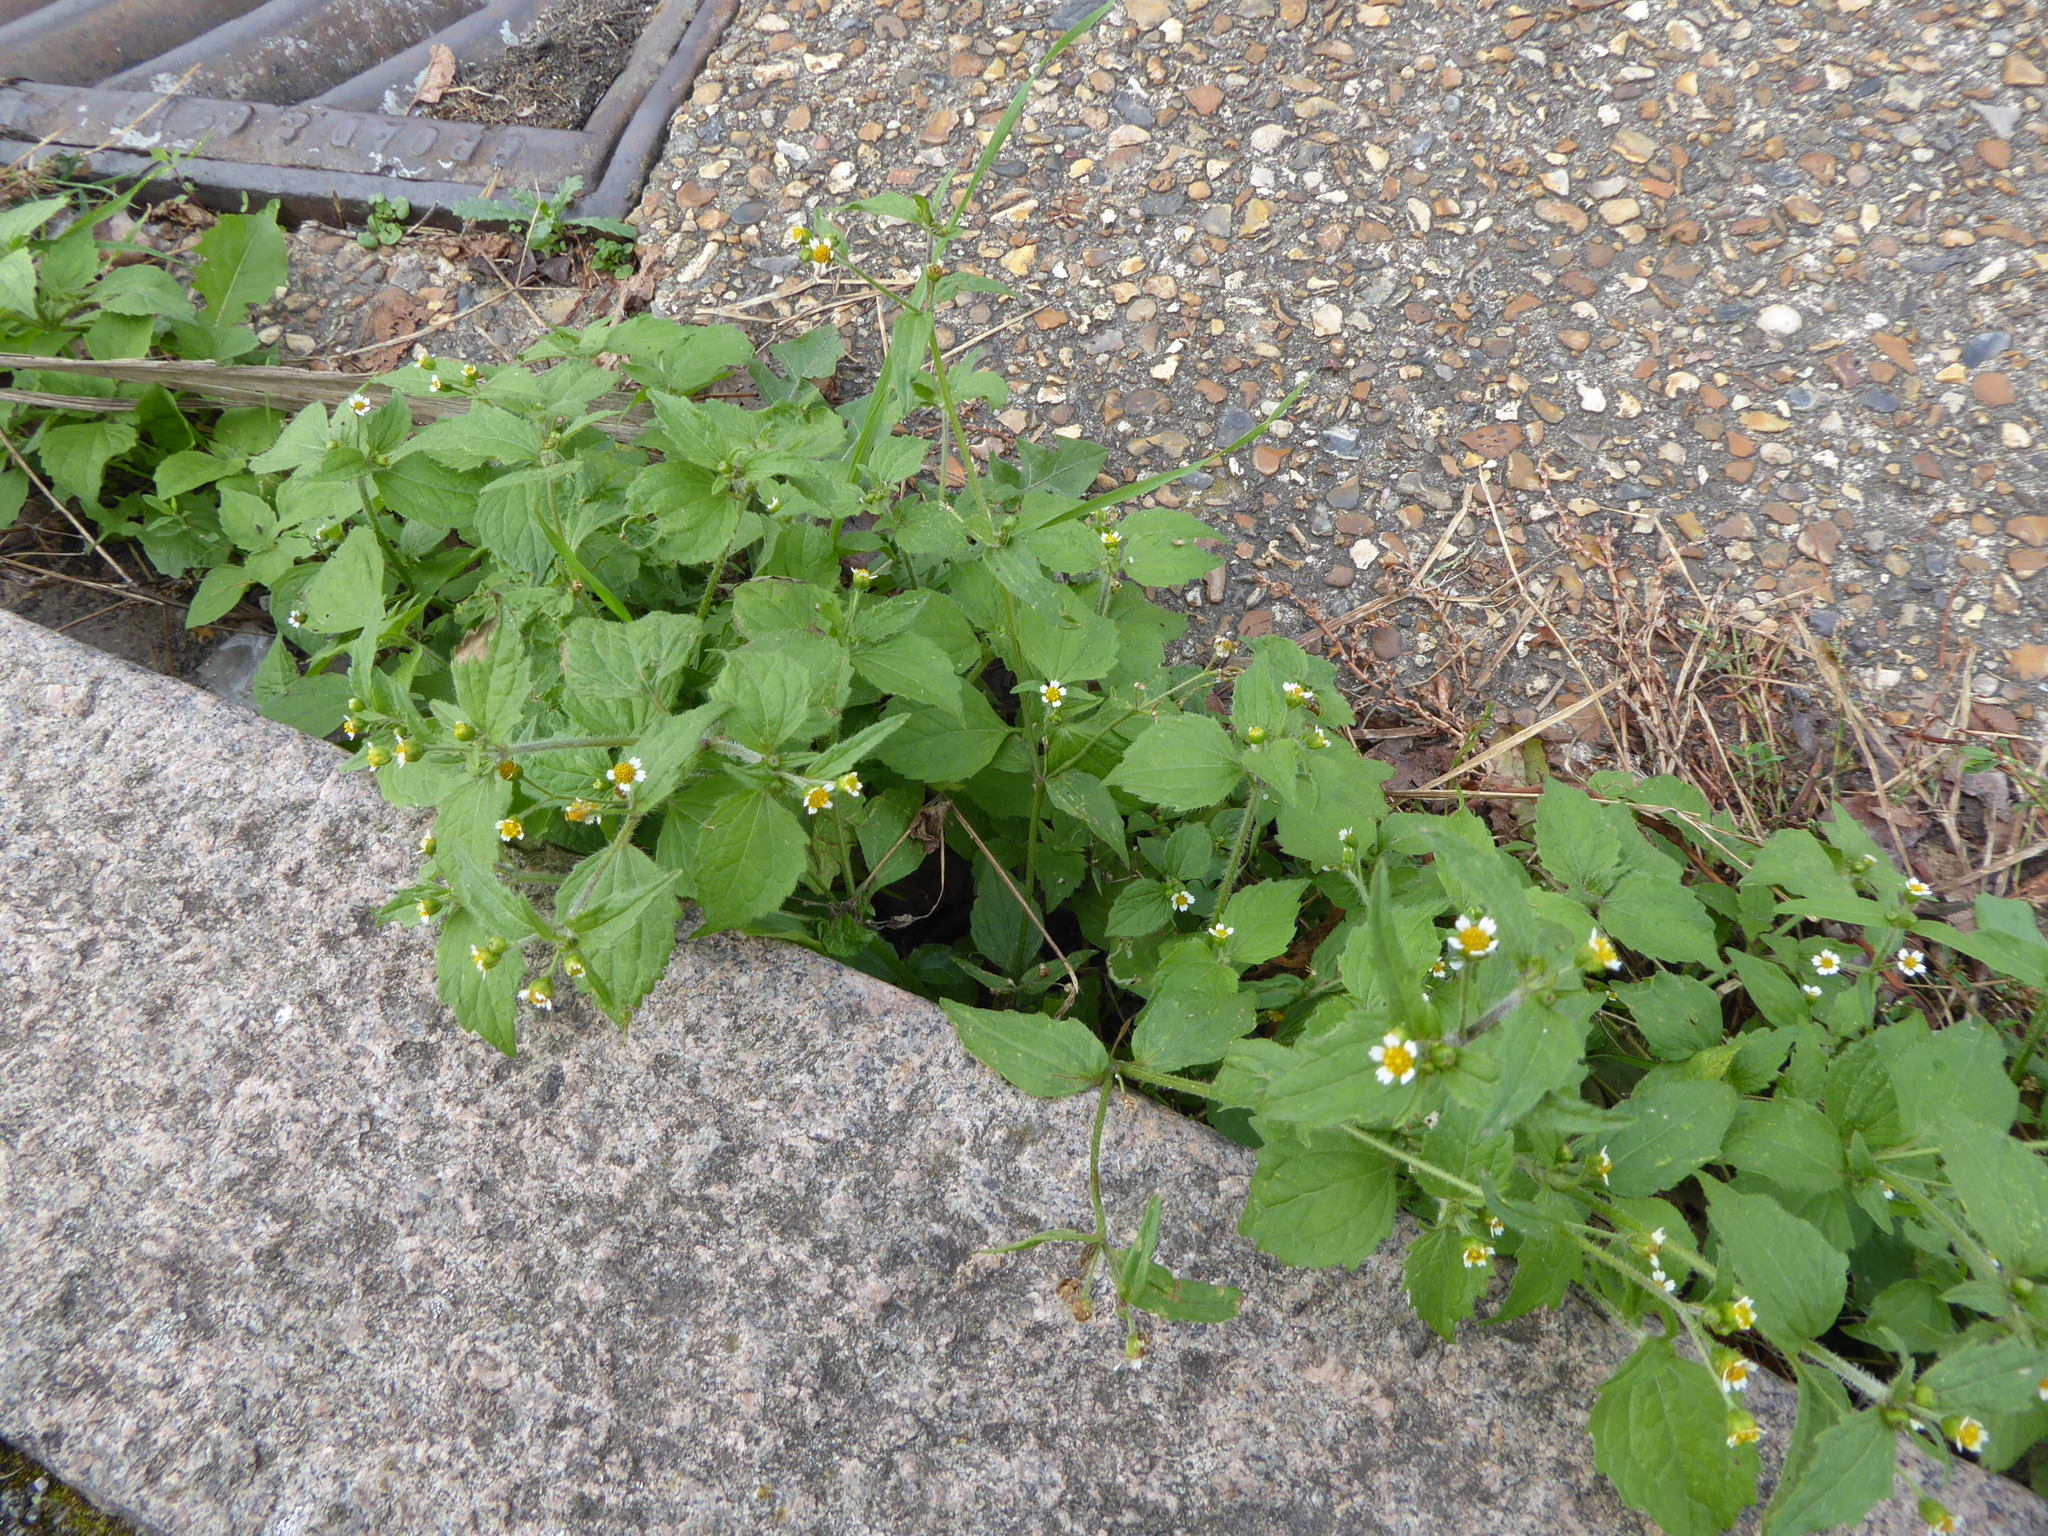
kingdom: Plantae
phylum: Tracheophyta
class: Magnoliopsida
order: Asterales
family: Asteraceae
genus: Galinsoga
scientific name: Galinsoga quadriradiata
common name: Shaggy soldier
